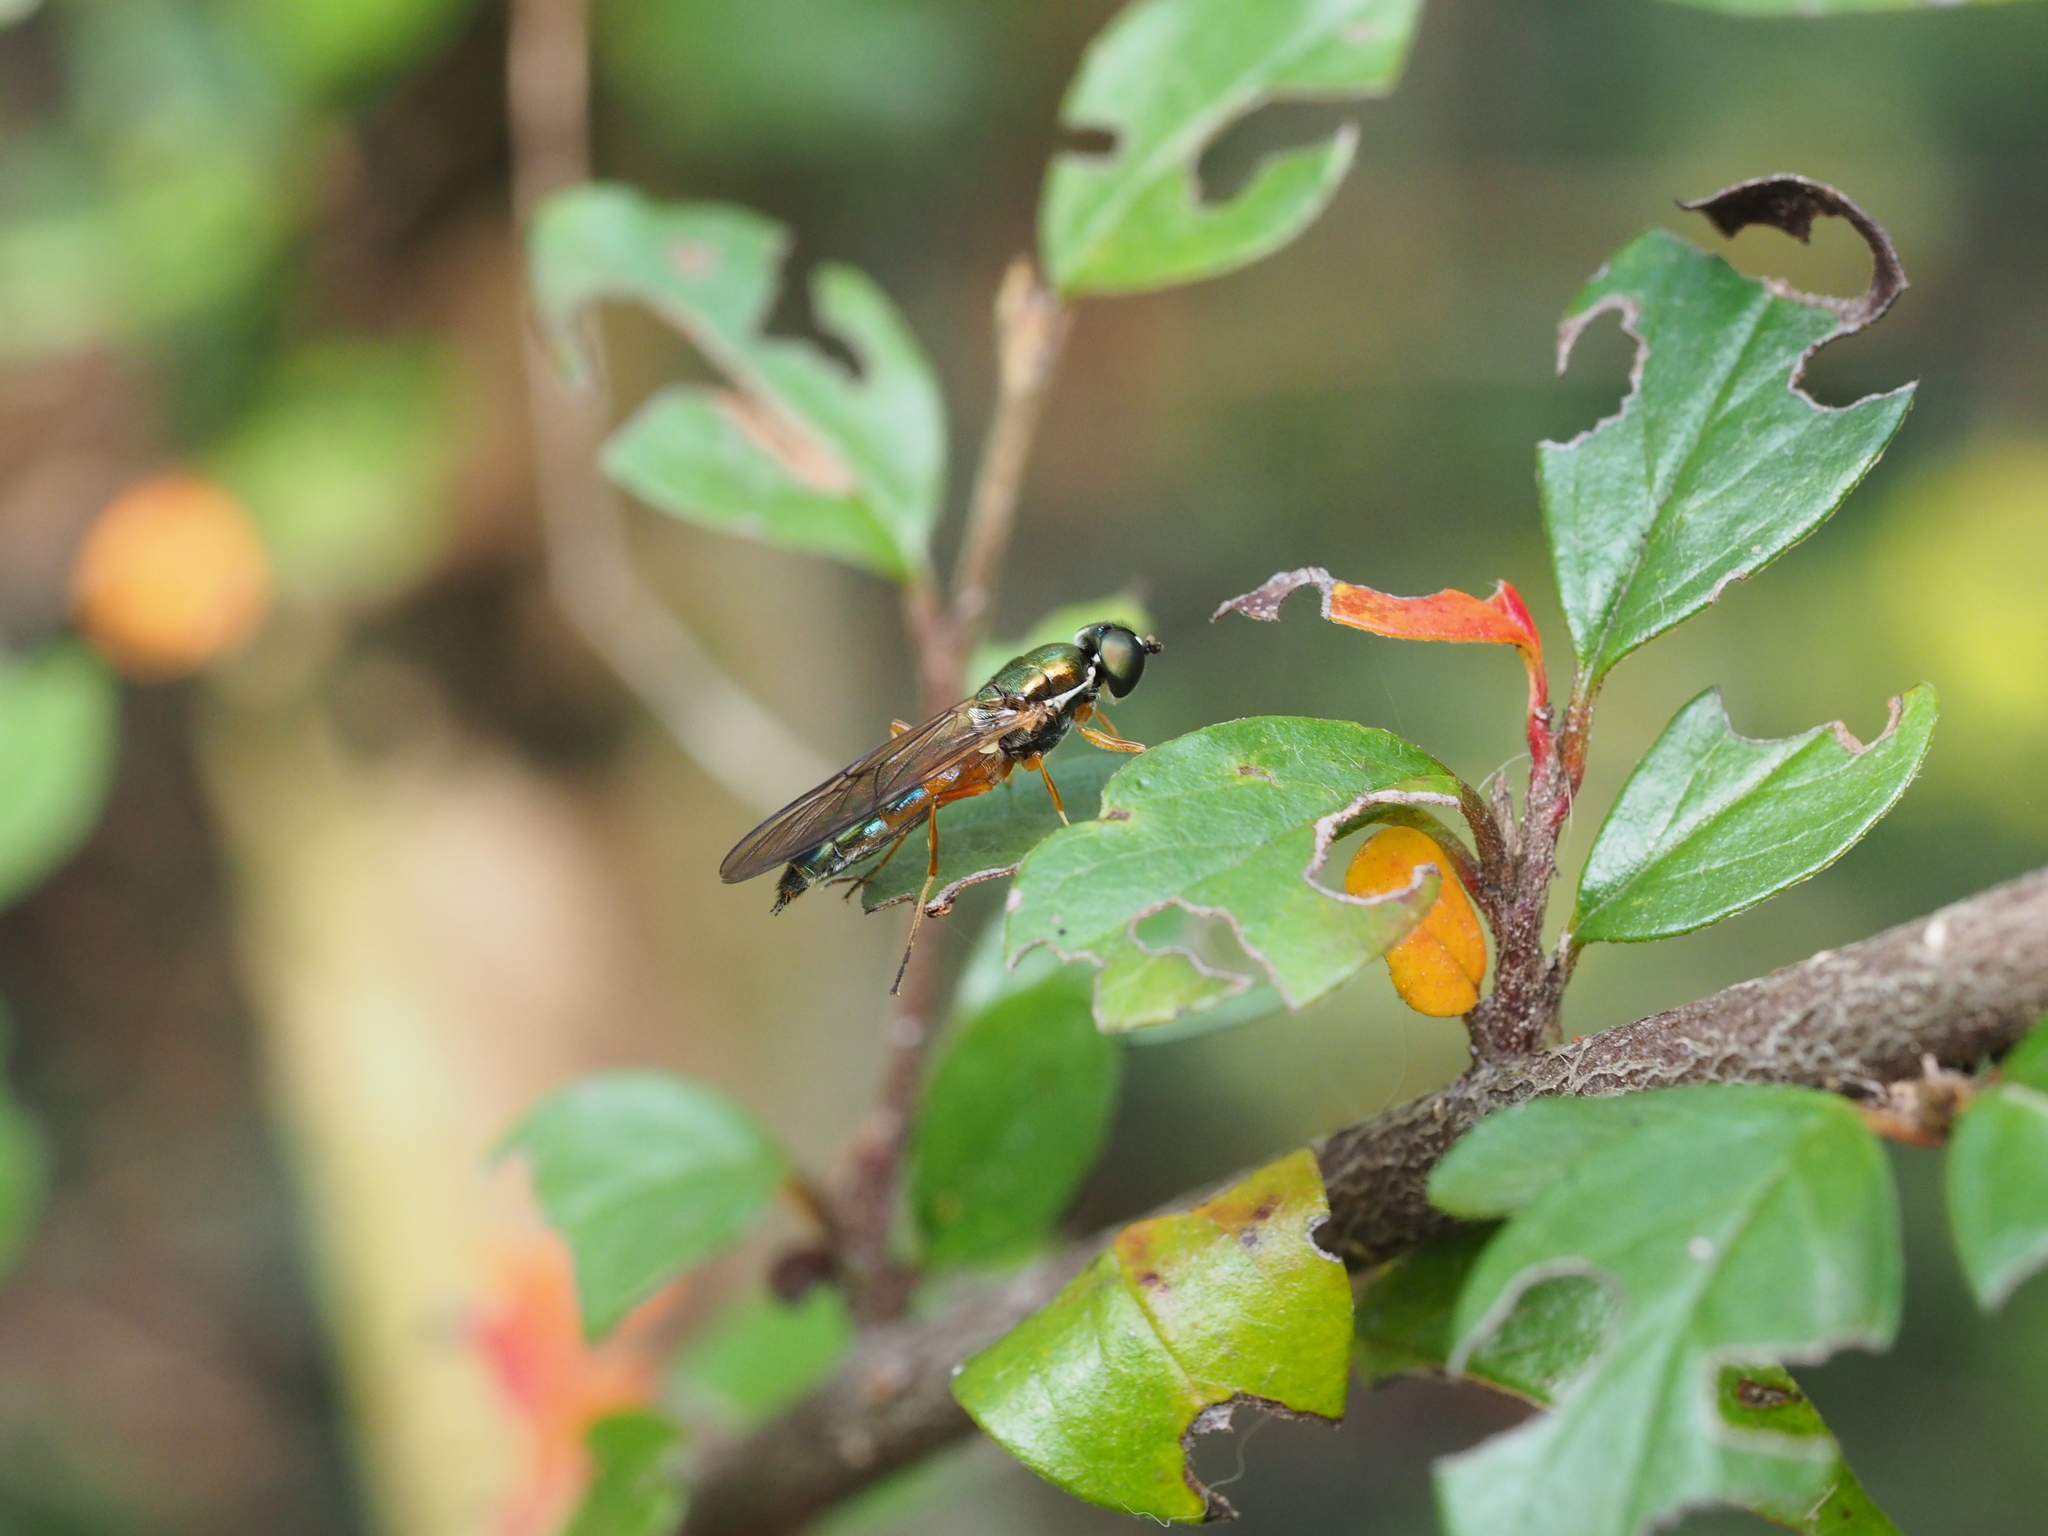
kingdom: Animalia
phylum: Arthropoda
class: Insecta
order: Diptera
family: Stratiomyidae
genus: Sargus
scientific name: Sargus bipunctatus
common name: Twin-spot centurion
